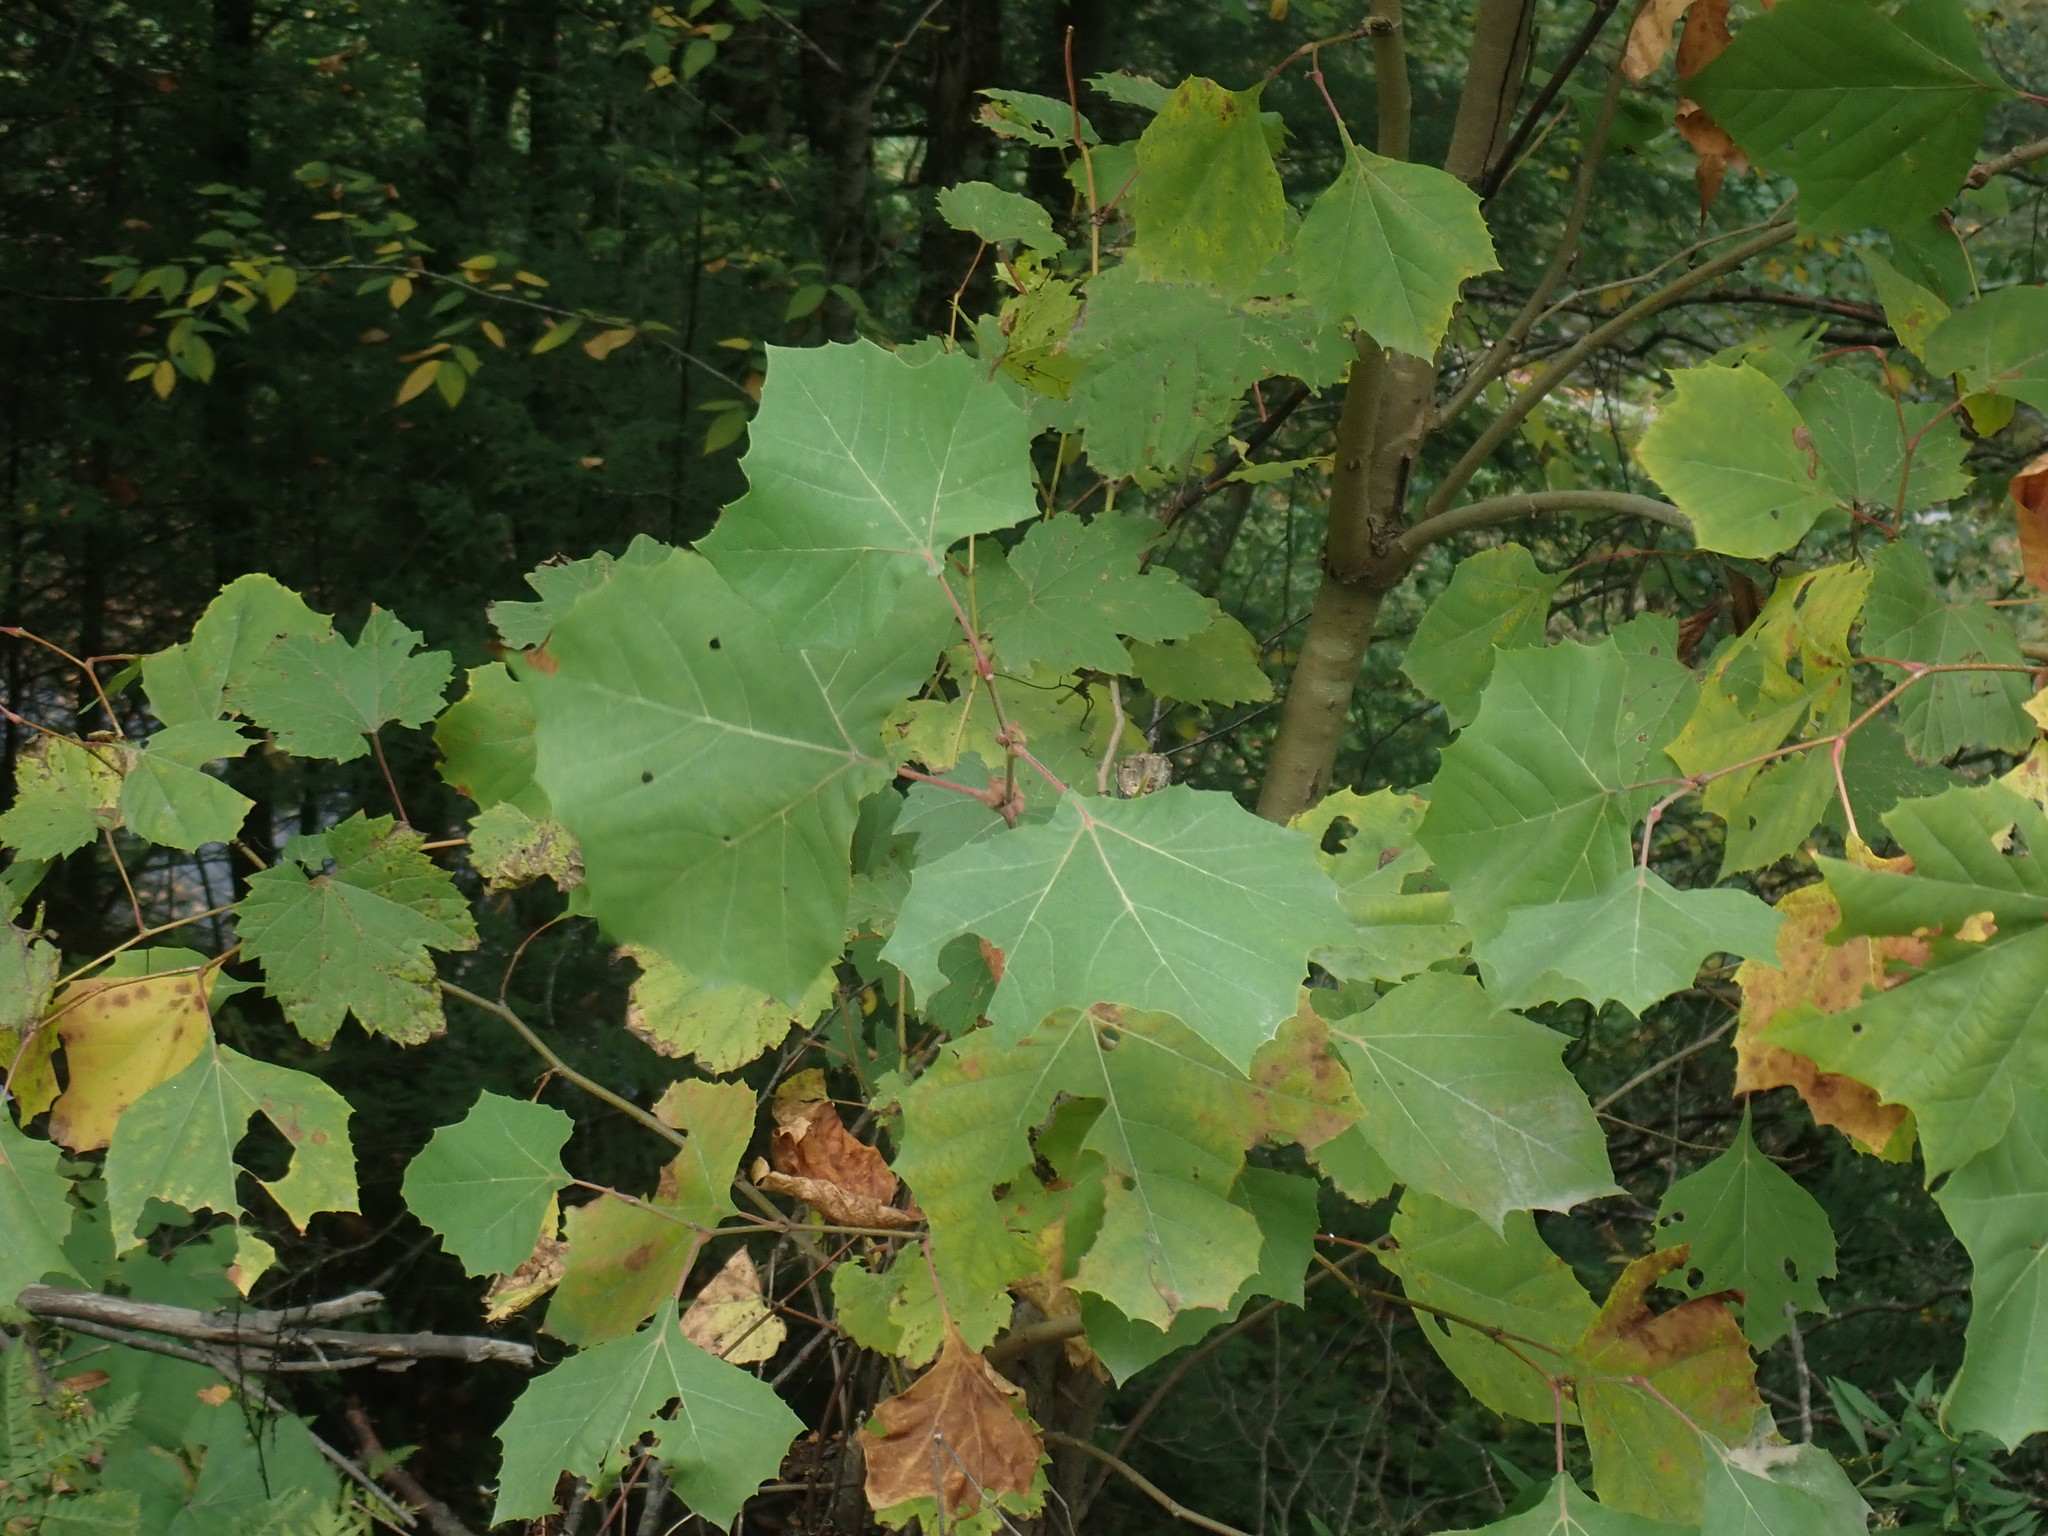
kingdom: Plantae
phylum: Tracheophyta
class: Magnoliopsida
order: Proteales
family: Platanaceae
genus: Platanus
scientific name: Platanus occidentalis
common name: American sycamore
